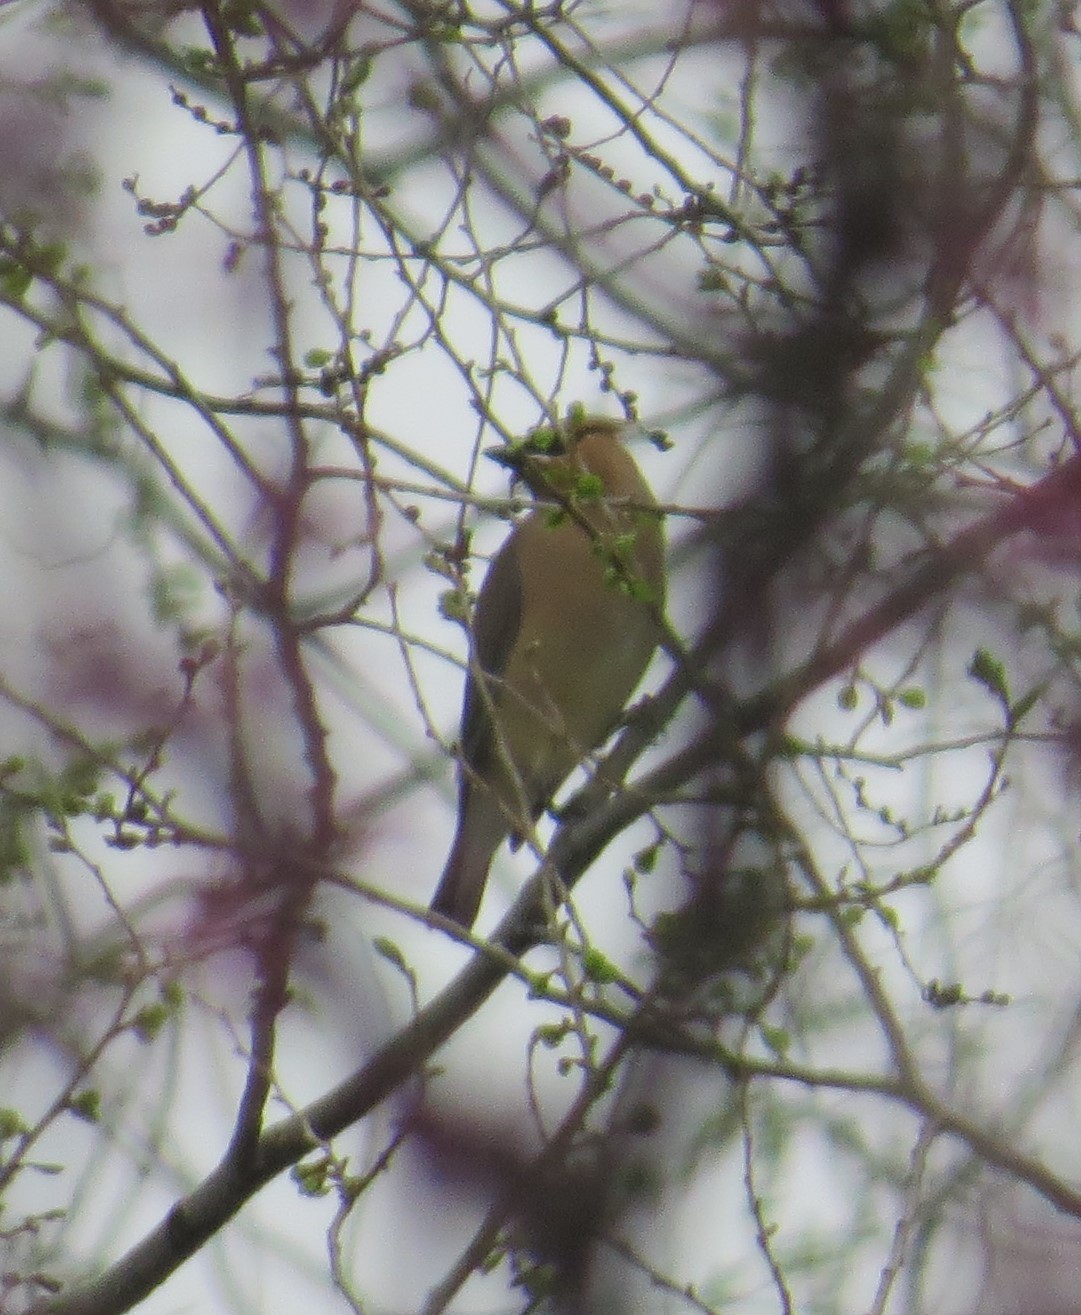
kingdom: Animalia
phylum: Chordata
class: Aves
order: Passeriformes
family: Bombycillidae
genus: Bombycilla
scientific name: Bombycilla cedrorum
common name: Cedar waxwing
